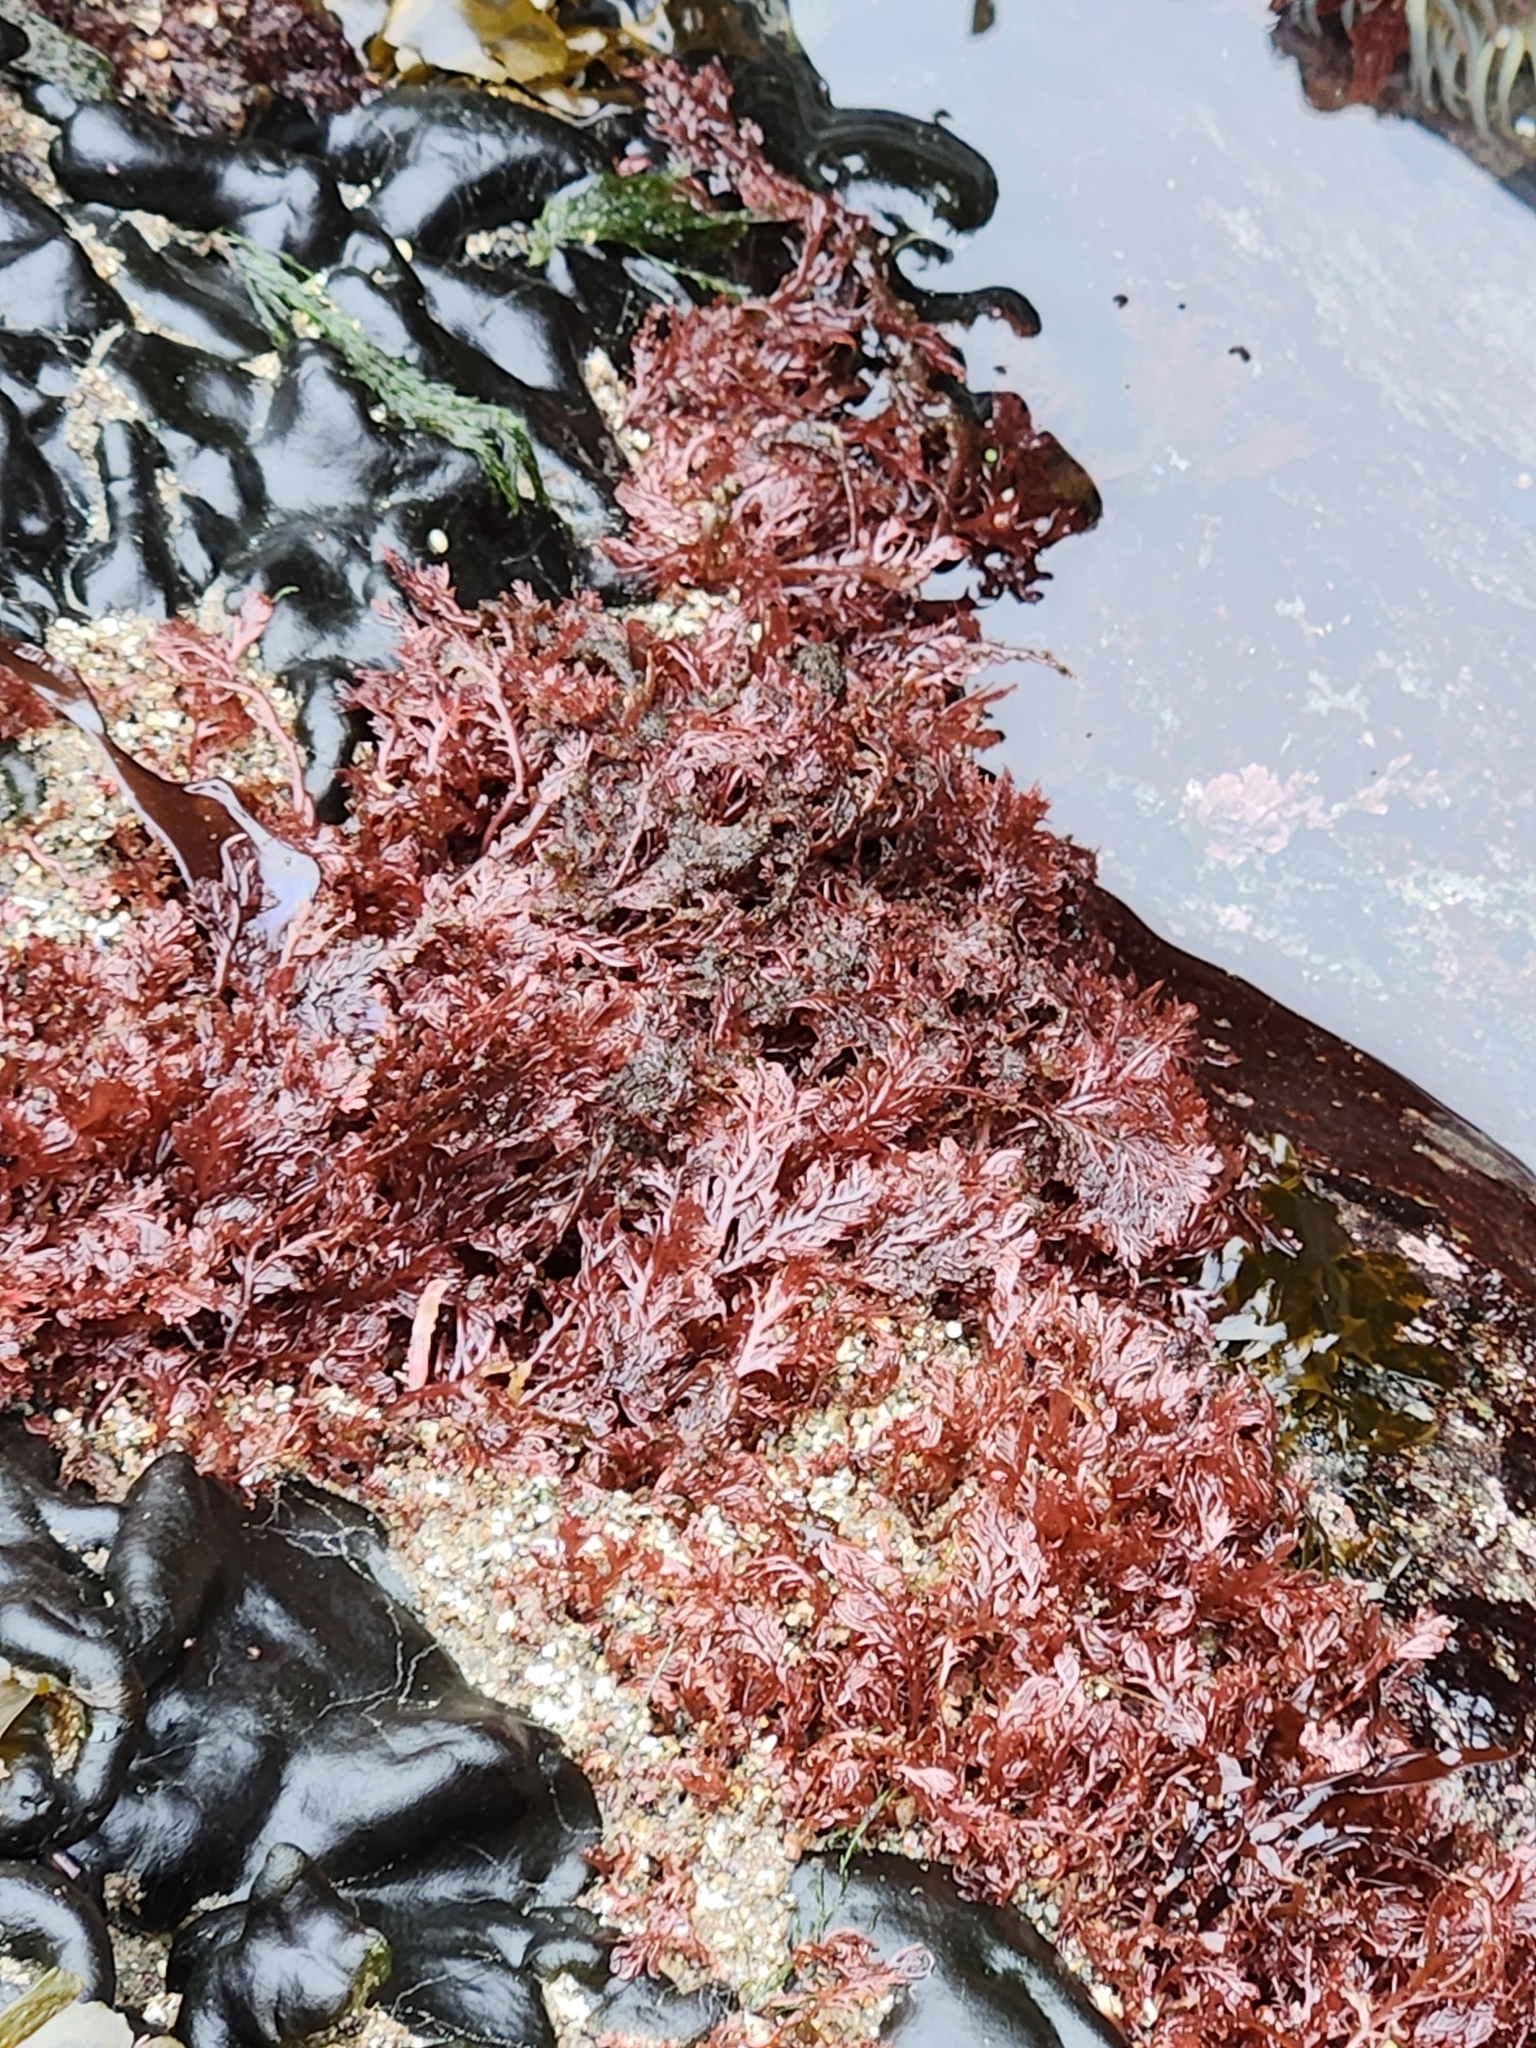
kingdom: Plantae
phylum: Rhodophyta
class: Florideophyceae
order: Plocamiales
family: Plocamiaceae
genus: Plocamium
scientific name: Plocamium cartilagineum
